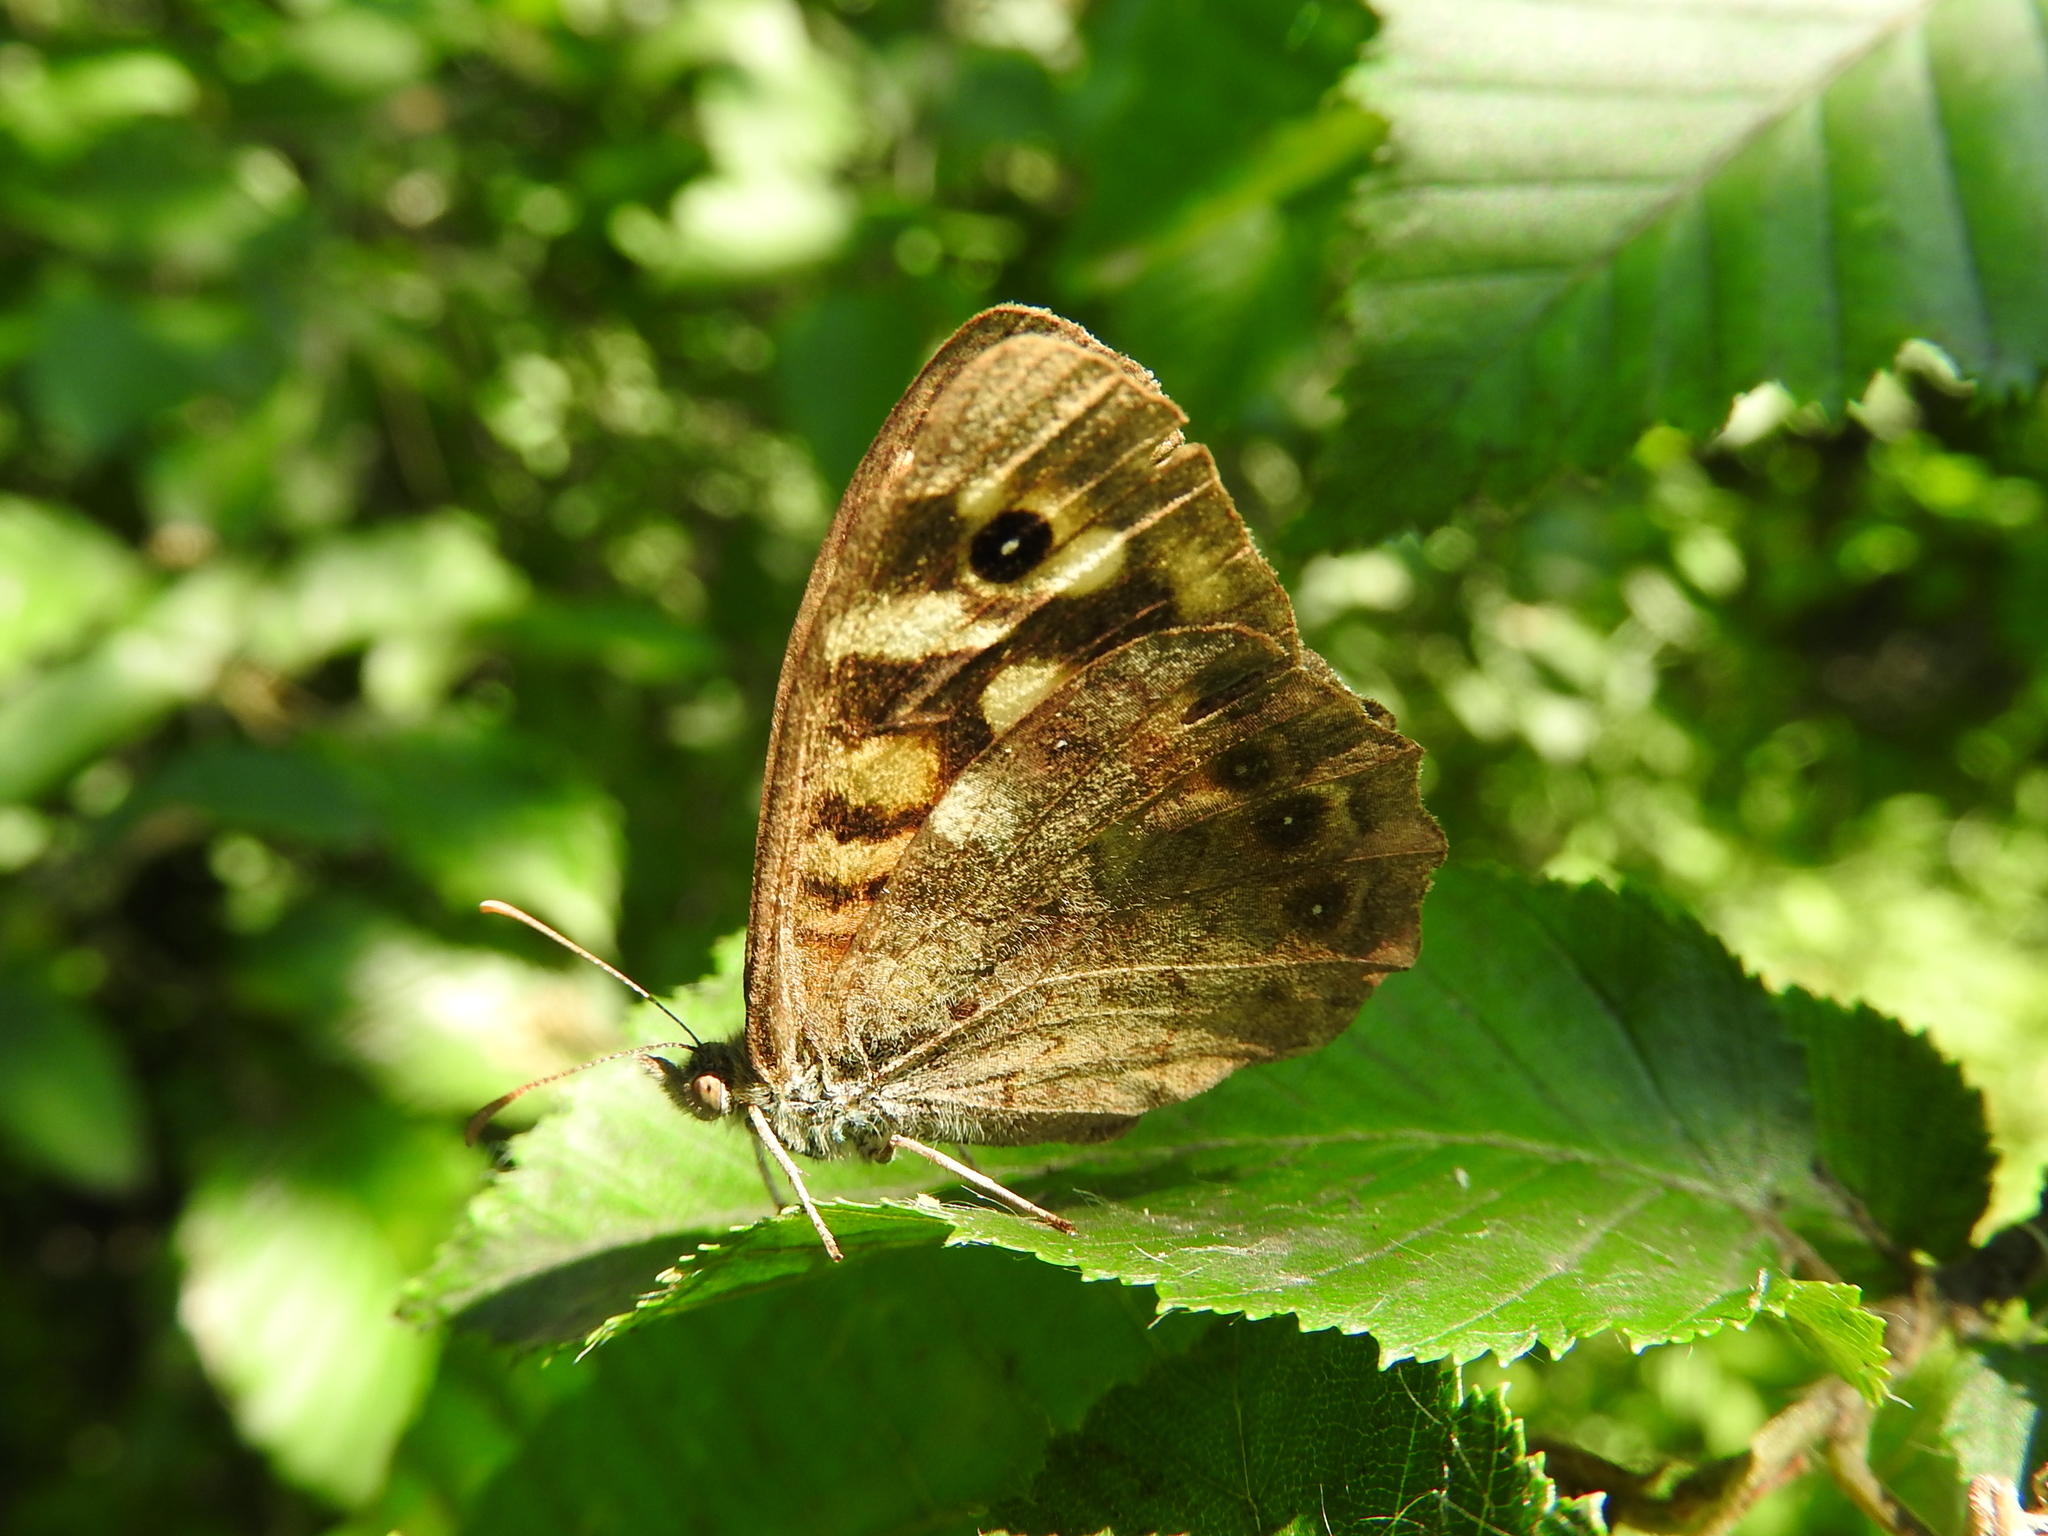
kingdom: Animalia
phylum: Arthropoda
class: Insecta
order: Lepidoptera
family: Nymphalidae
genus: Pararge
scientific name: Pararge aegeria
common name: Speckled wood
